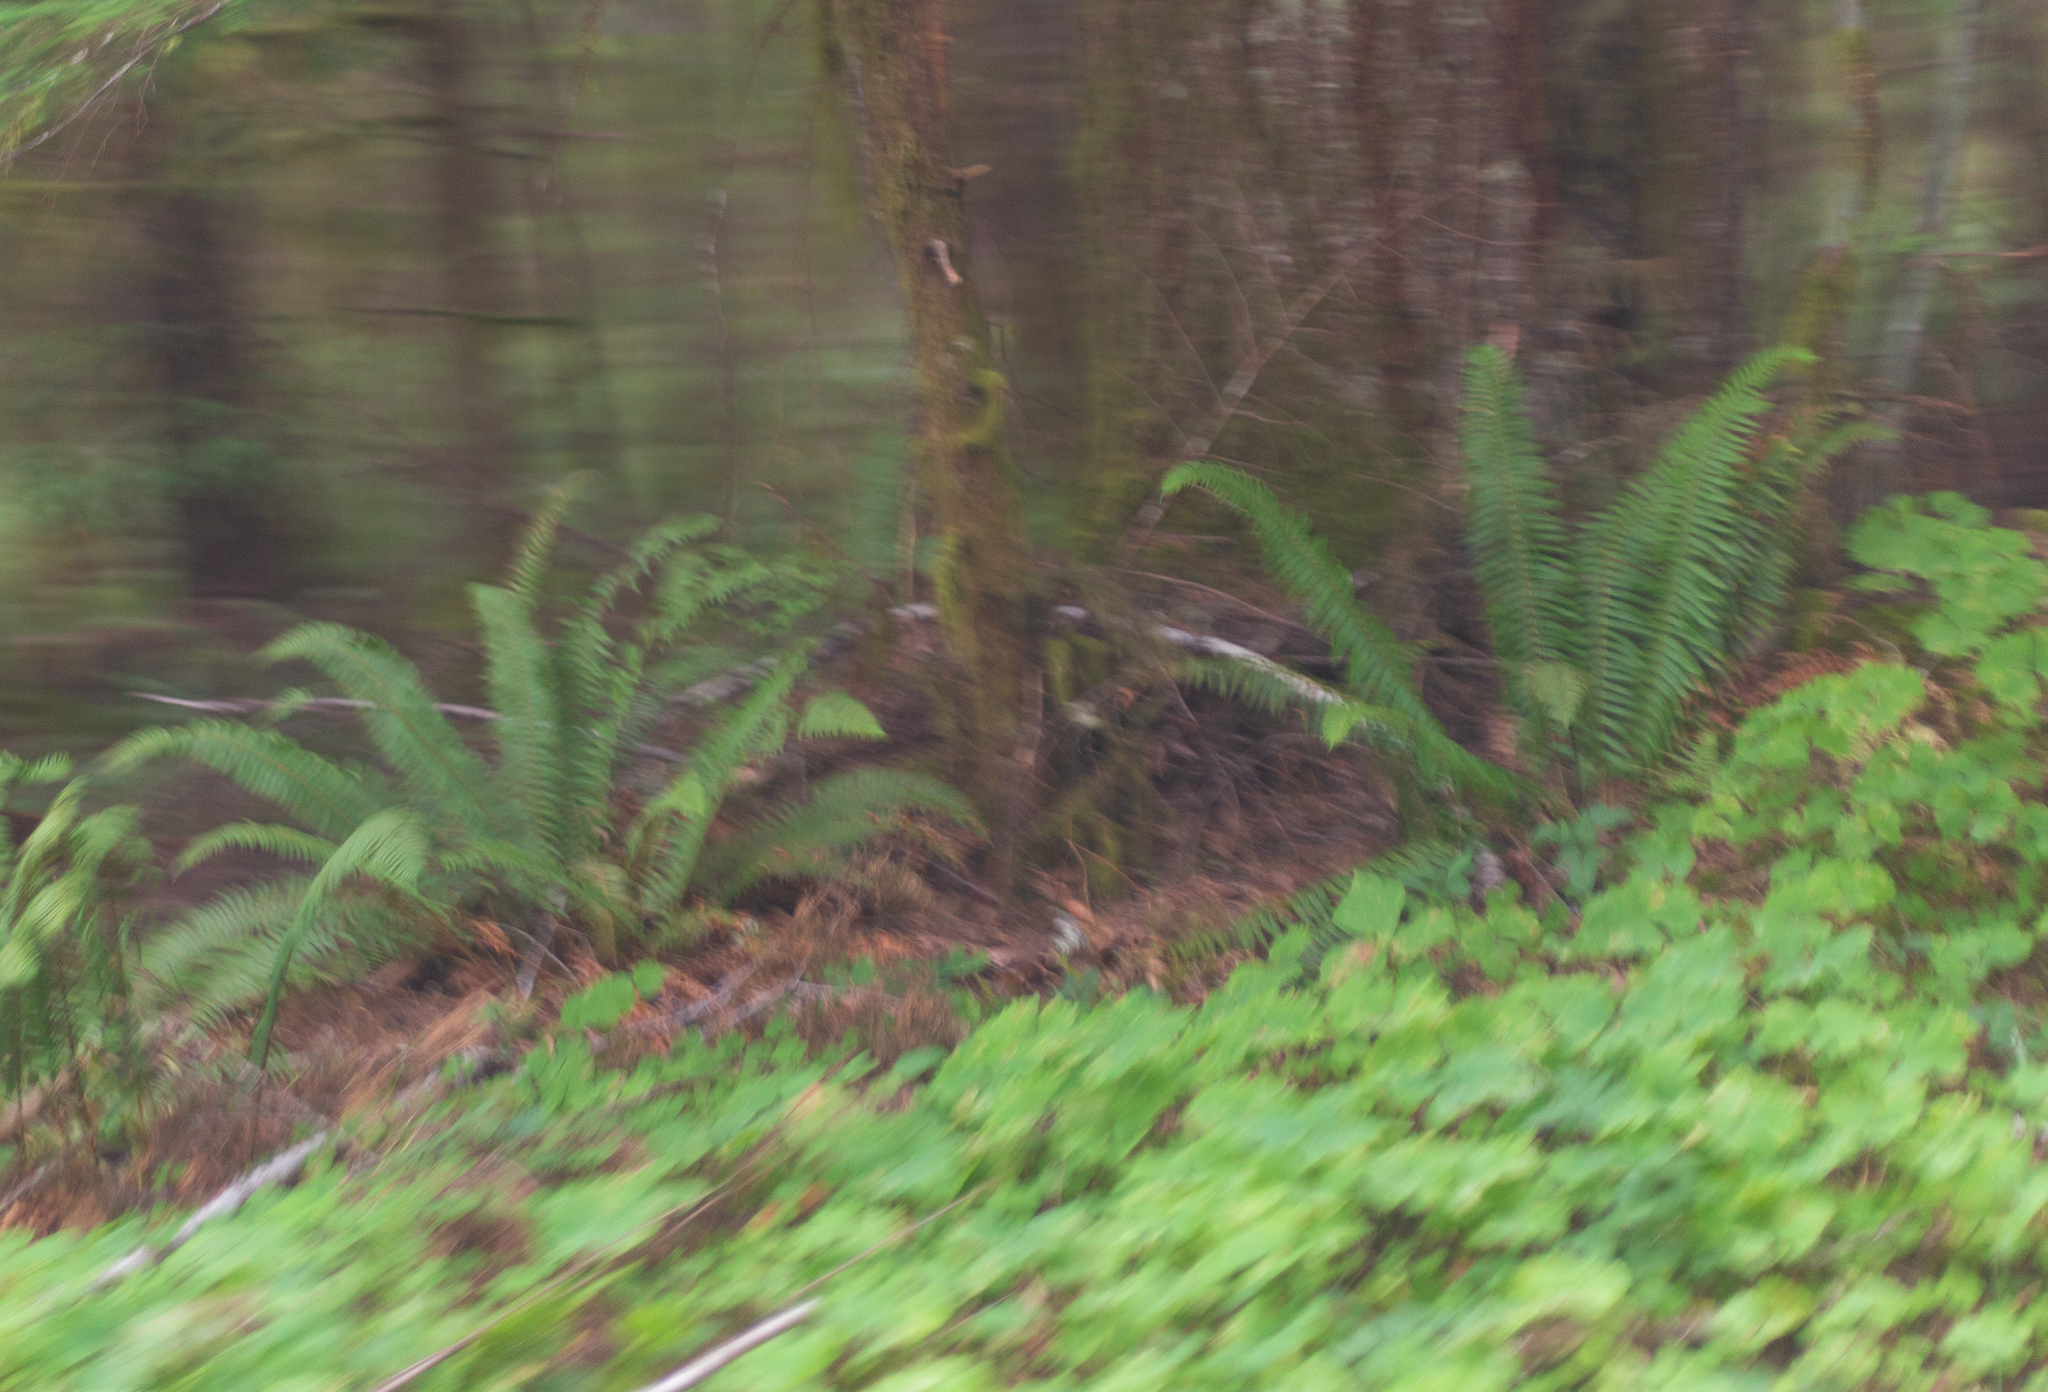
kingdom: Plantae
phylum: Tracheophyta
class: Polypodiopsida
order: Polypodiales
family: Dryopteridaceae
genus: Polystichum
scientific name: Polystichum munitum
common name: Western sword-fern
